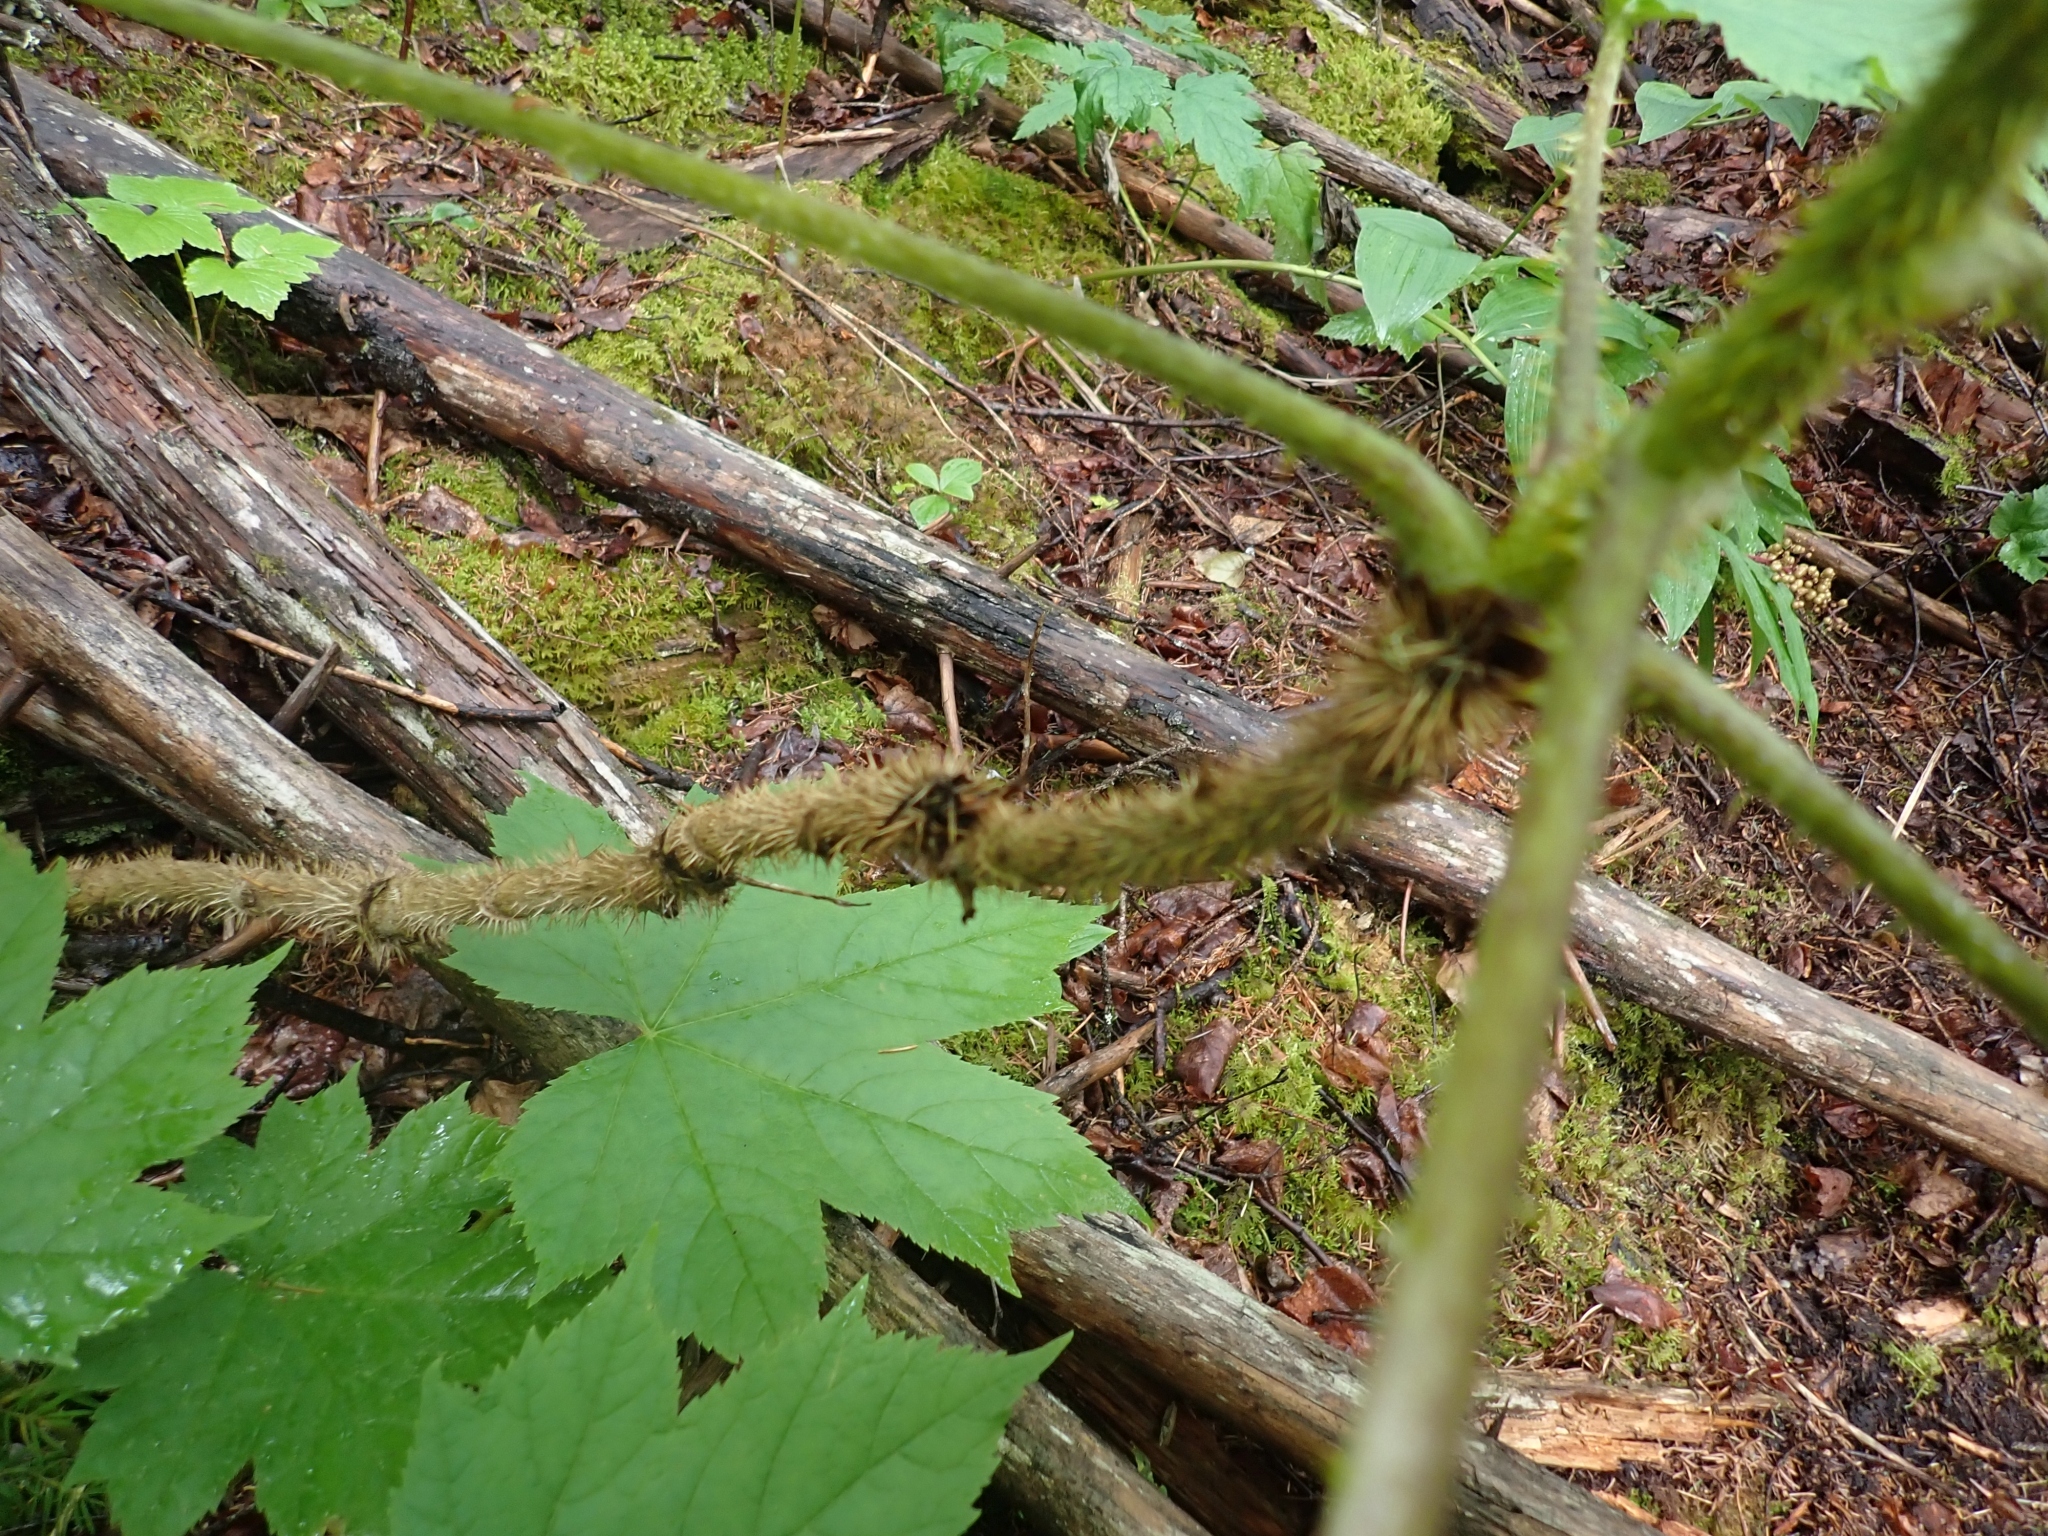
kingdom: Plantae
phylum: Tracheophyta
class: Magnoliopsida
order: Apiales
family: Araliaceae
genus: Oplopanax
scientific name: Oplopanax horridus
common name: Devil's walking-stick
